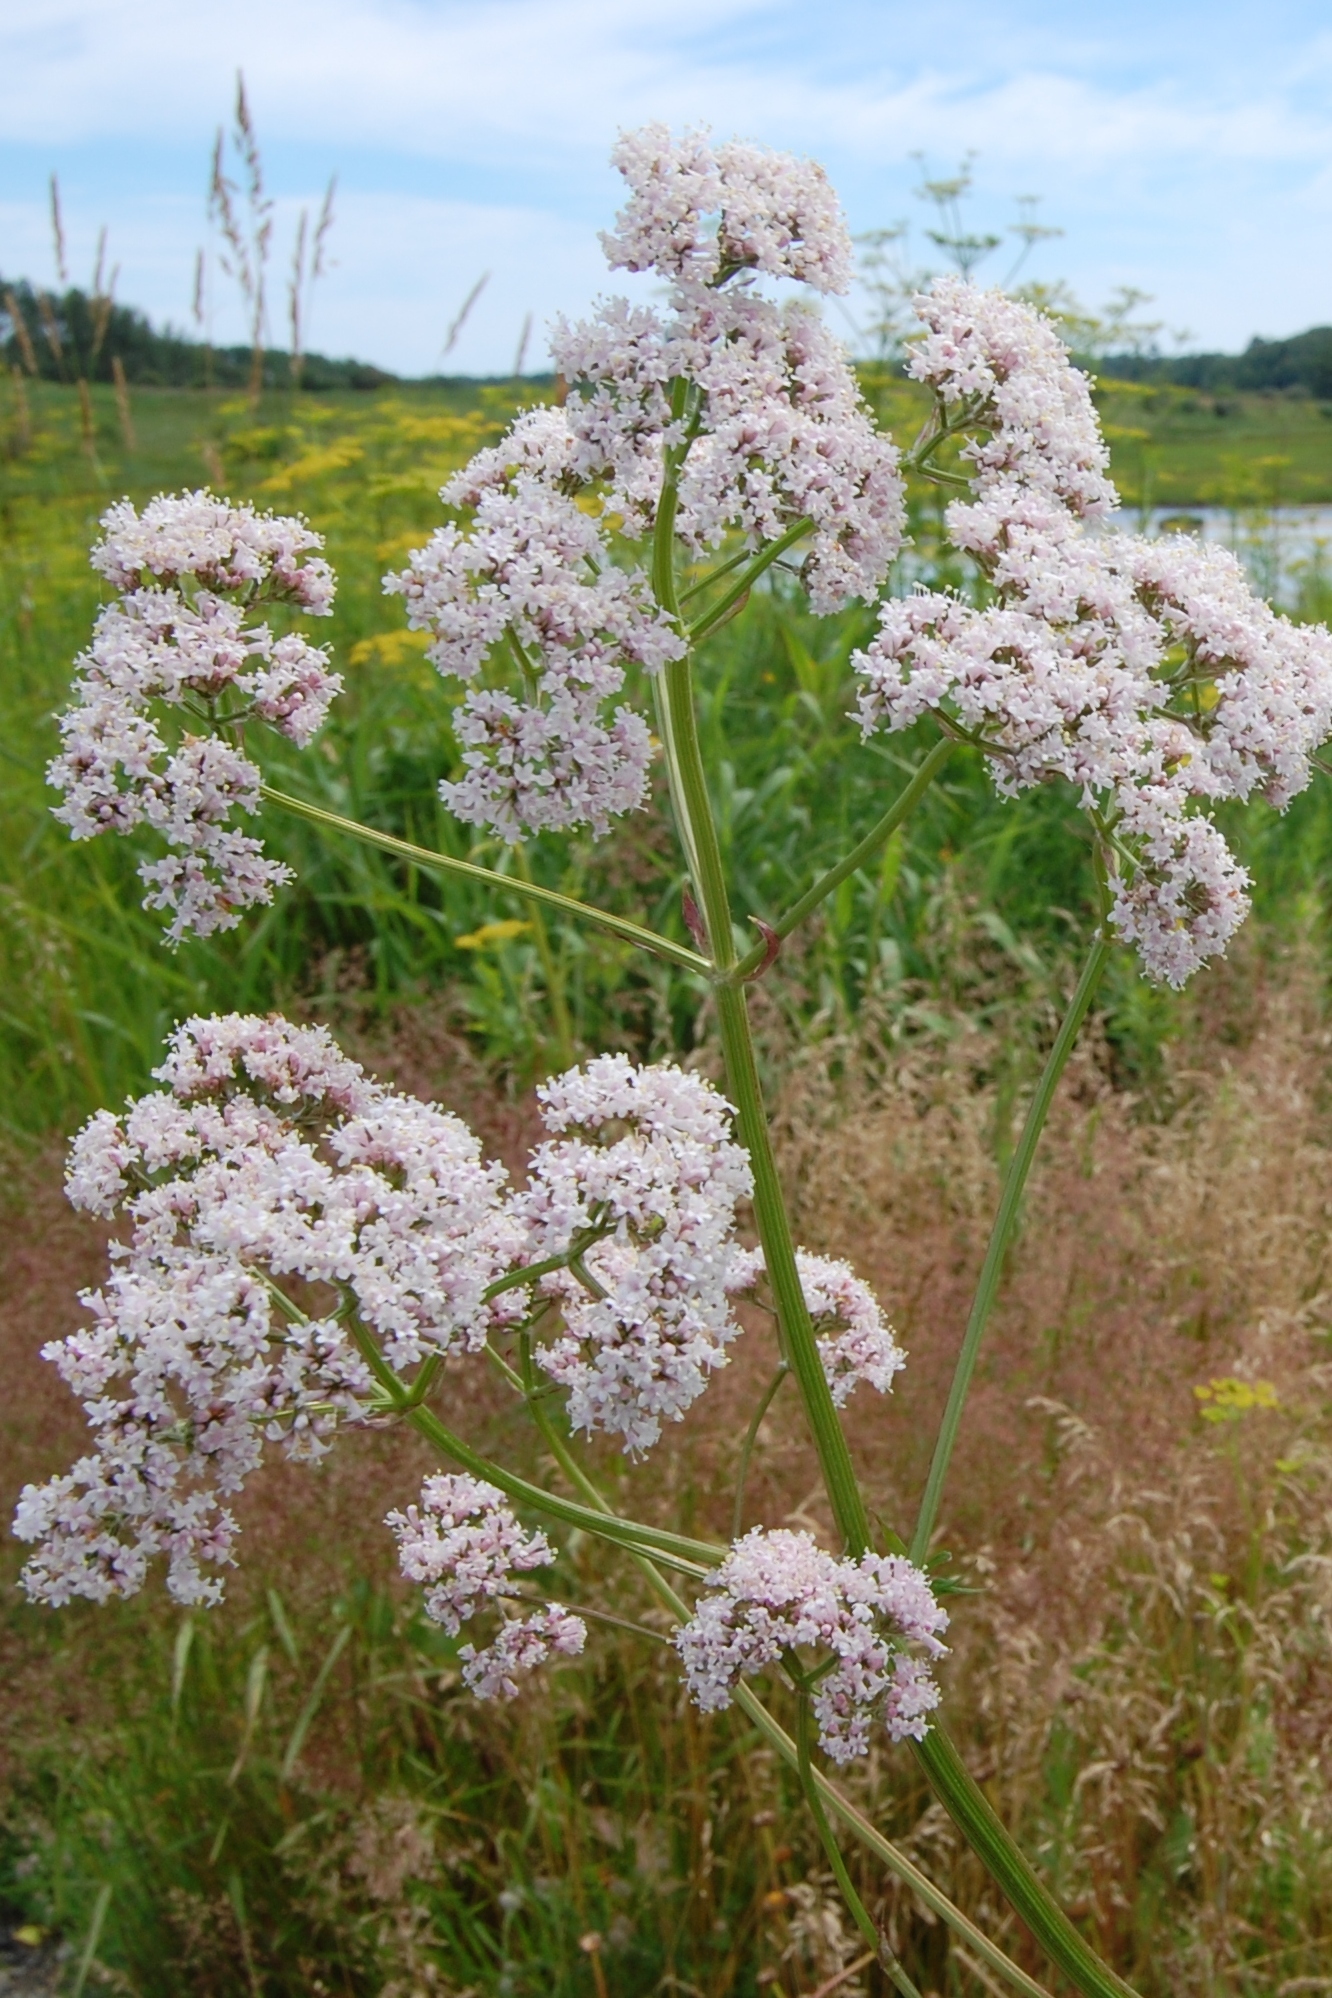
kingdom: Plantae
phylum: Tracheophyta
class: Magnoliopsida
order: Dipsacales
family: Caprifoliaceae
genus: Valeriana
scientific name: Valeriana officinalis
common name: Common valerian
